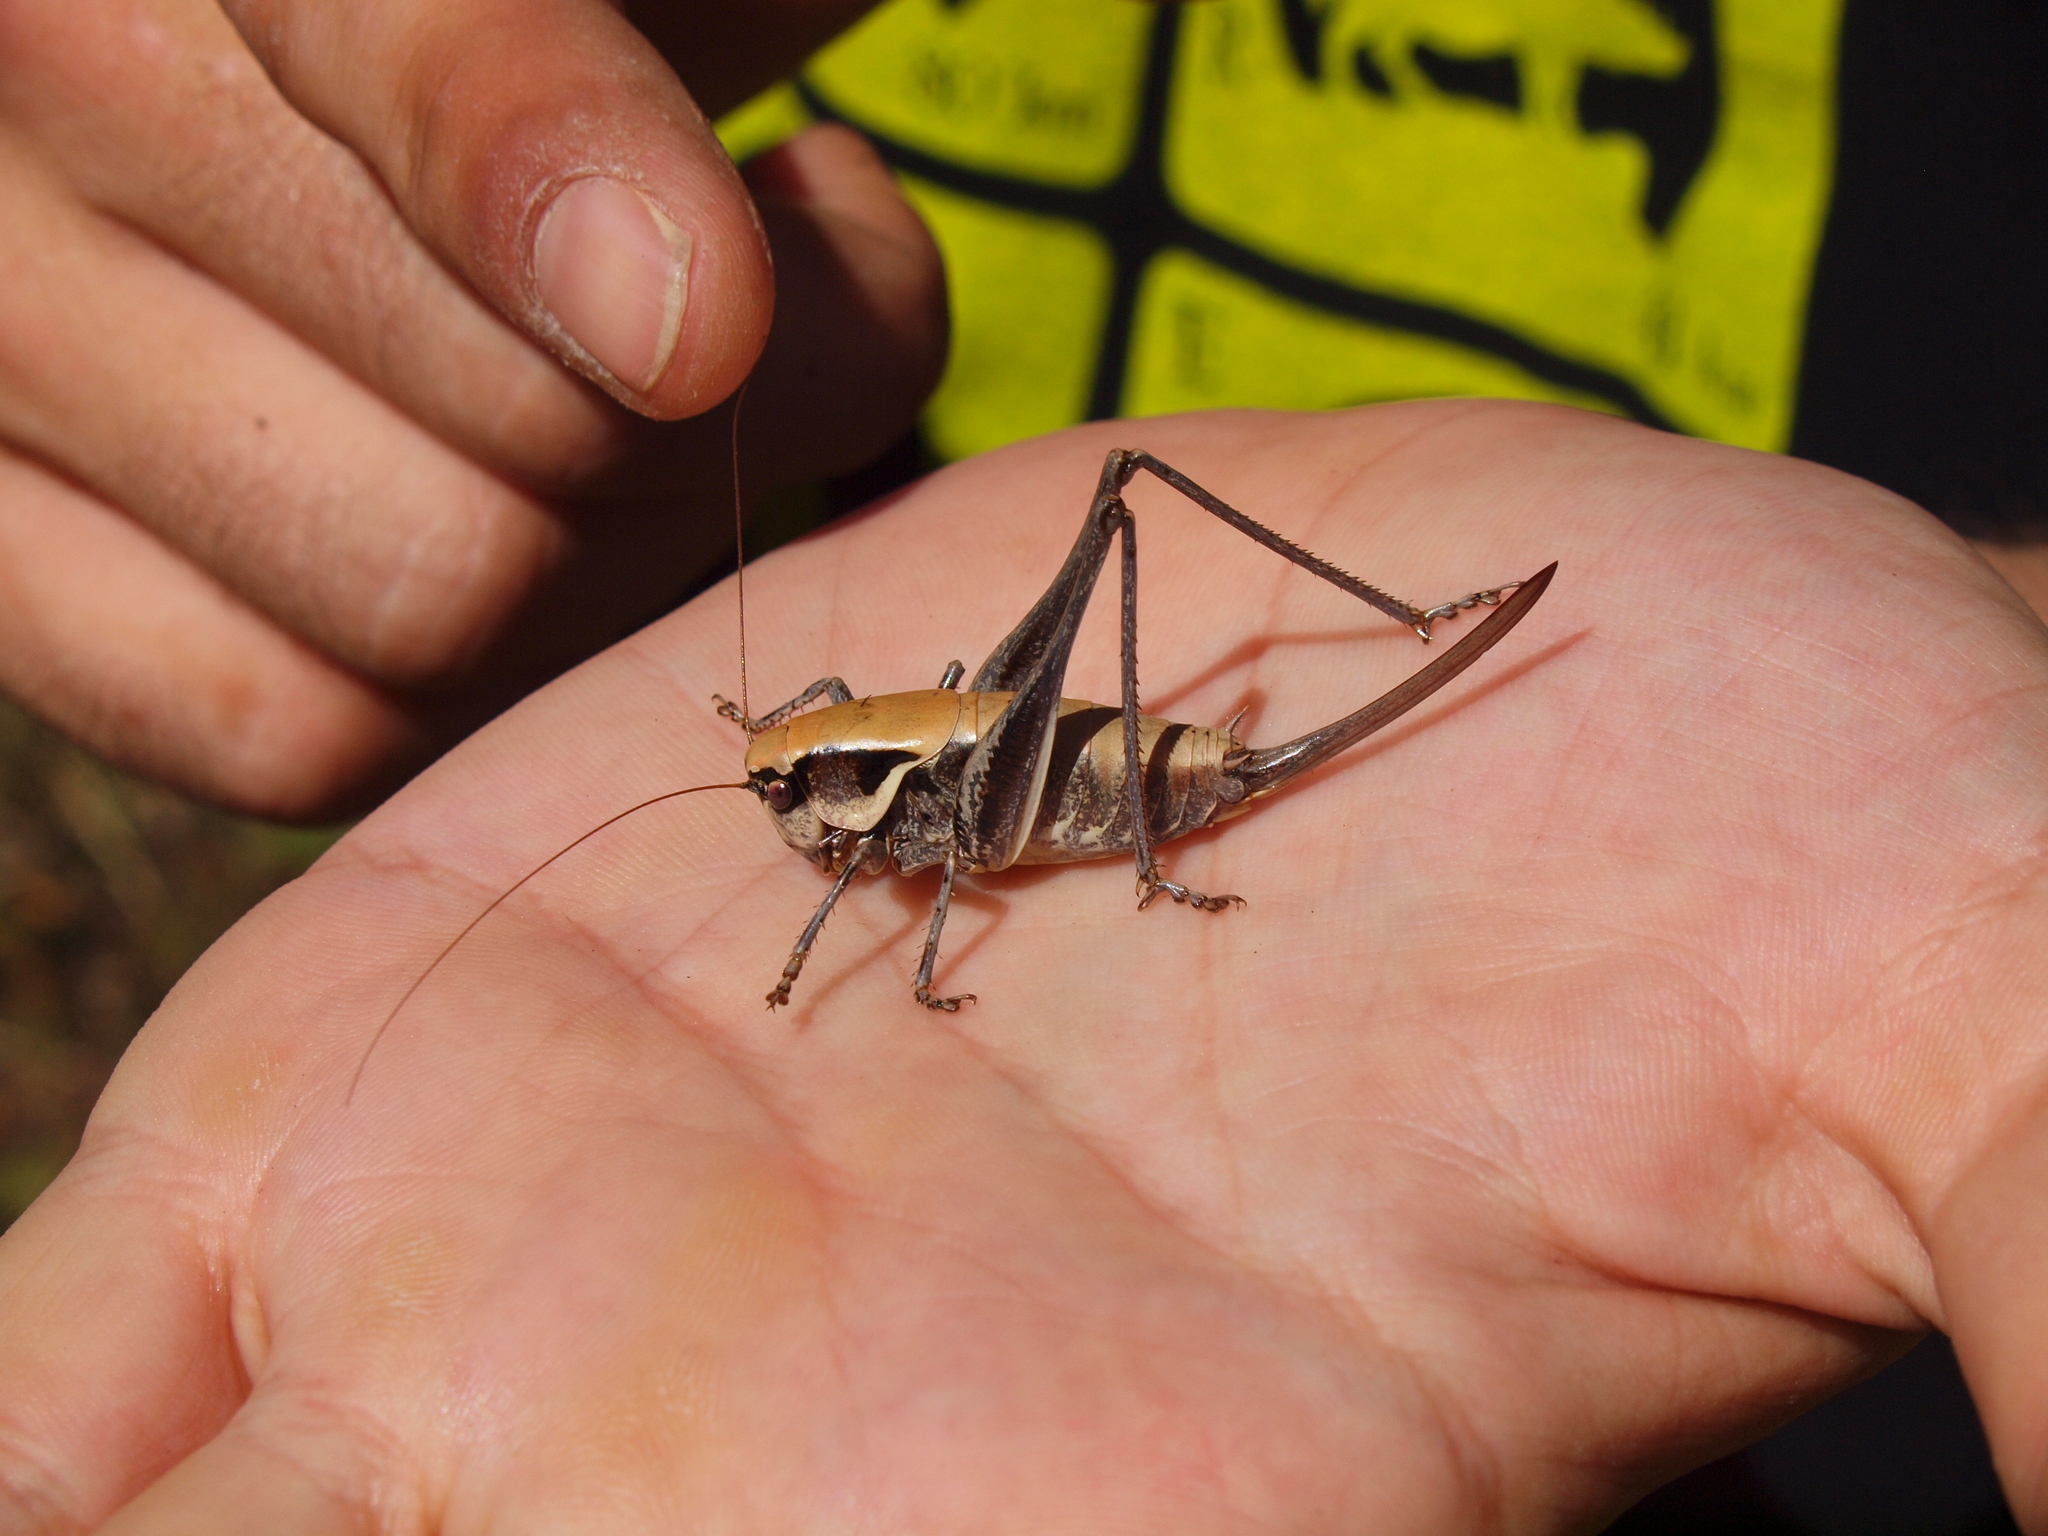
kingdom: Animalia
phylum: Arthropoda
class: Insecta
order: Orthoptera
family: Tettigoniidae
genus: Pholidoptera
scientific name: Pholidoptera dalmatica
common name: Dalmatian dark bush-cricket
